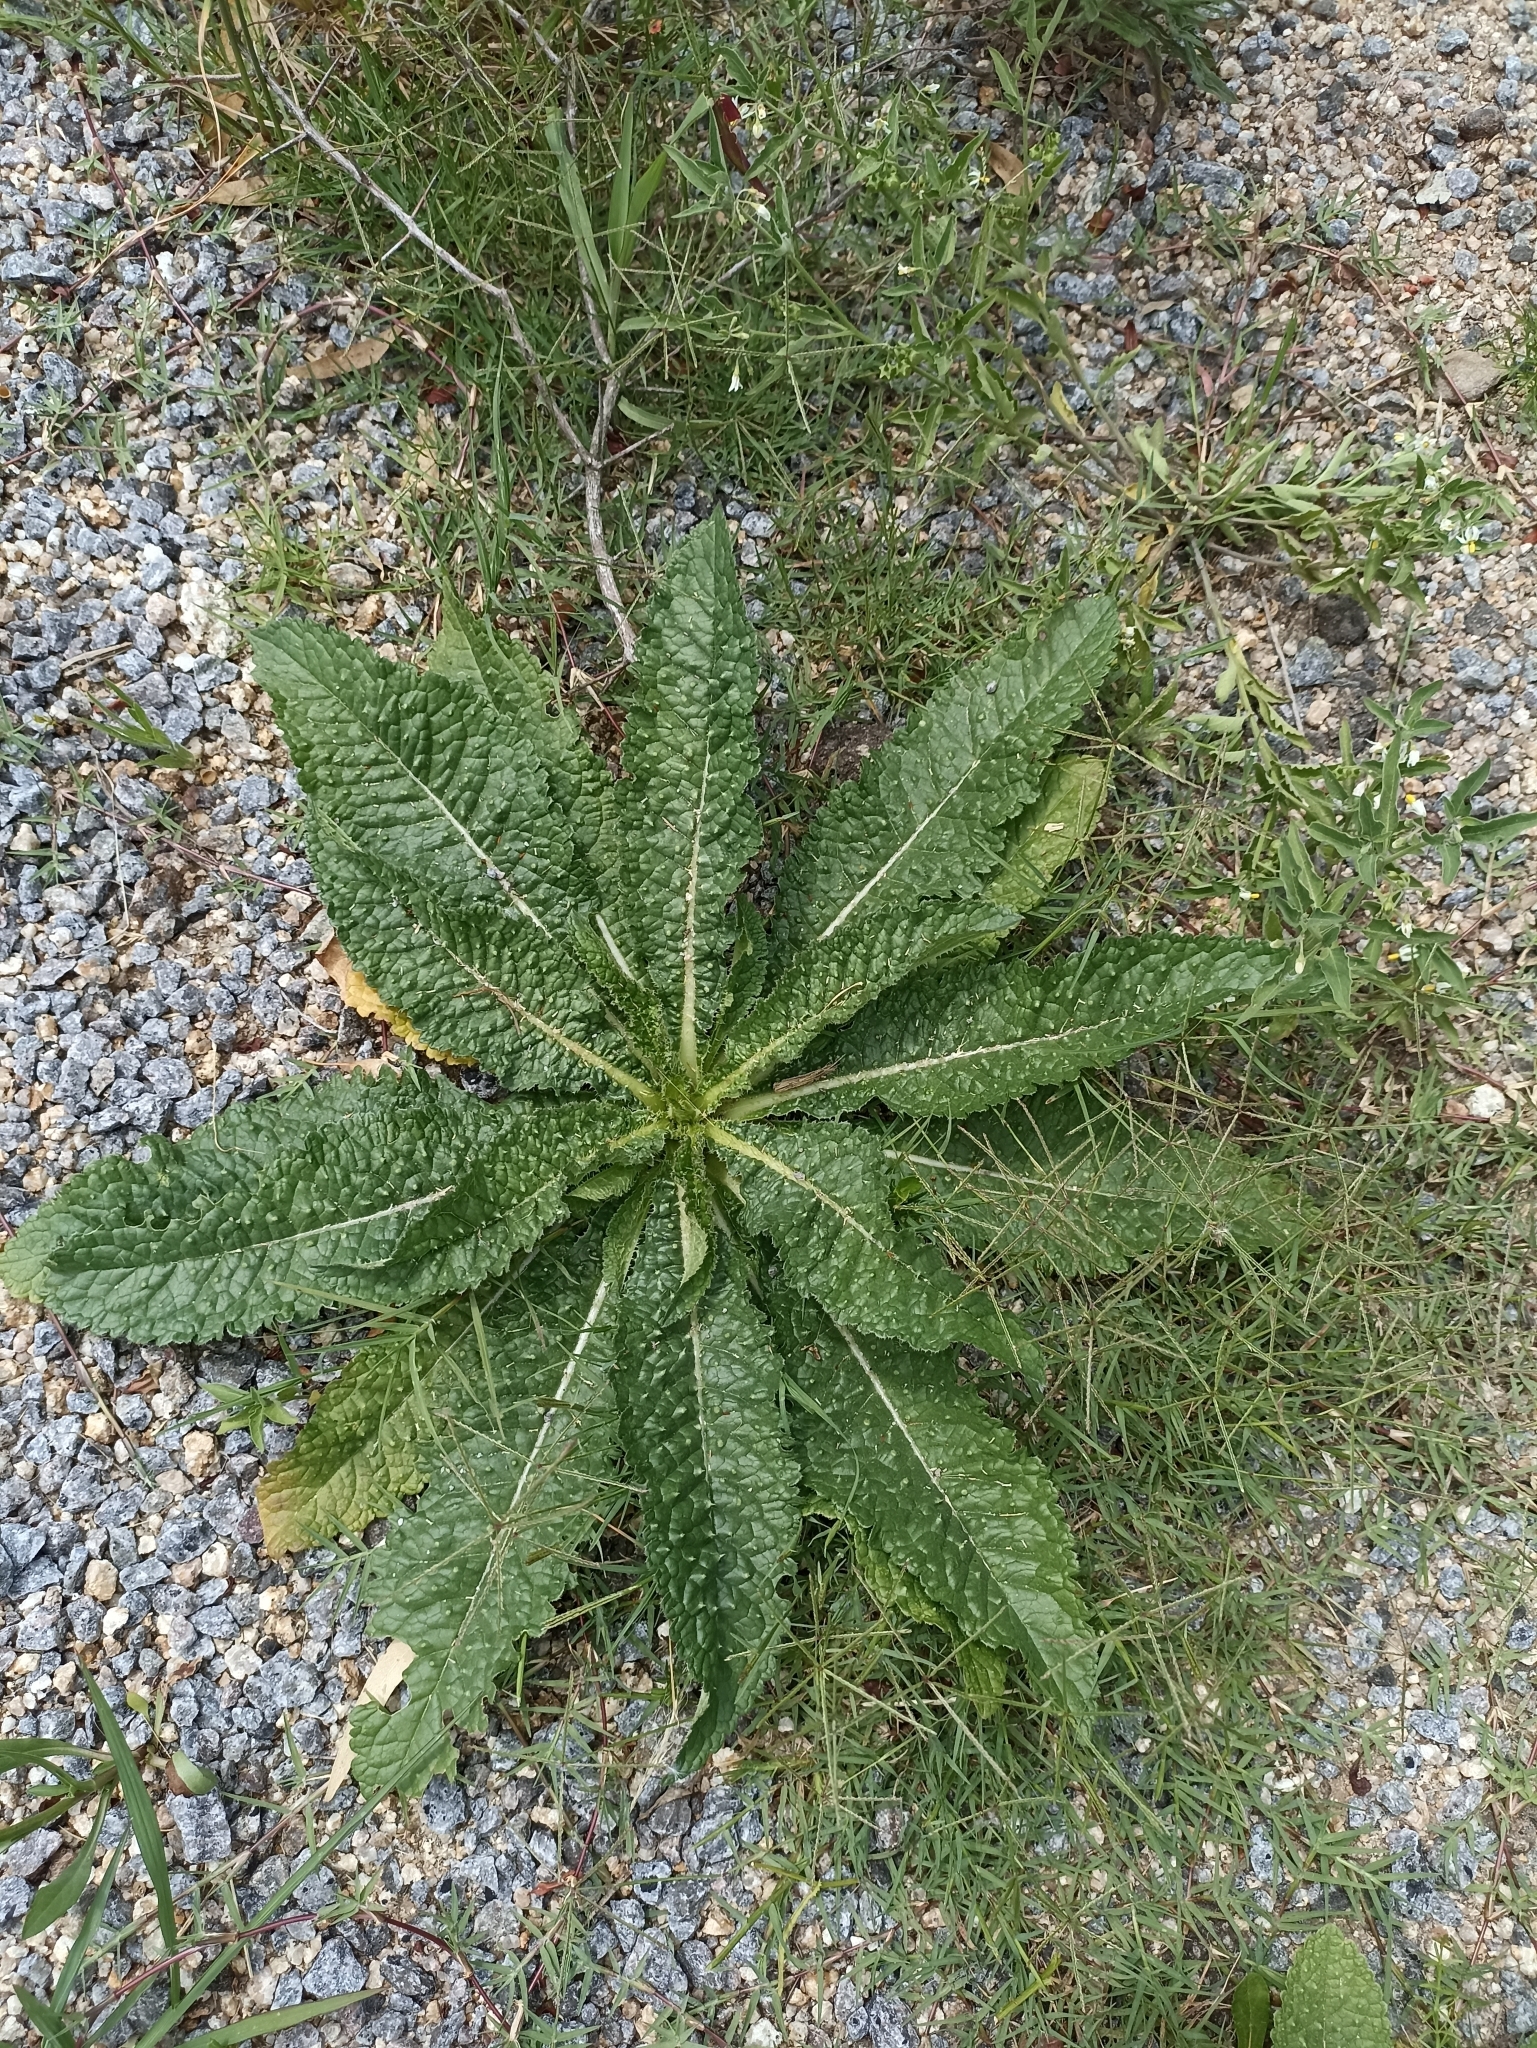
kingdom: Plantae
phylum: Tracheophyta
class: Magnoliopsida
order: Dipsacales
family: Caprifoliaceae
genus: Dipsacus
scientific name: Dipsacus fullonum
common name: Teasel
